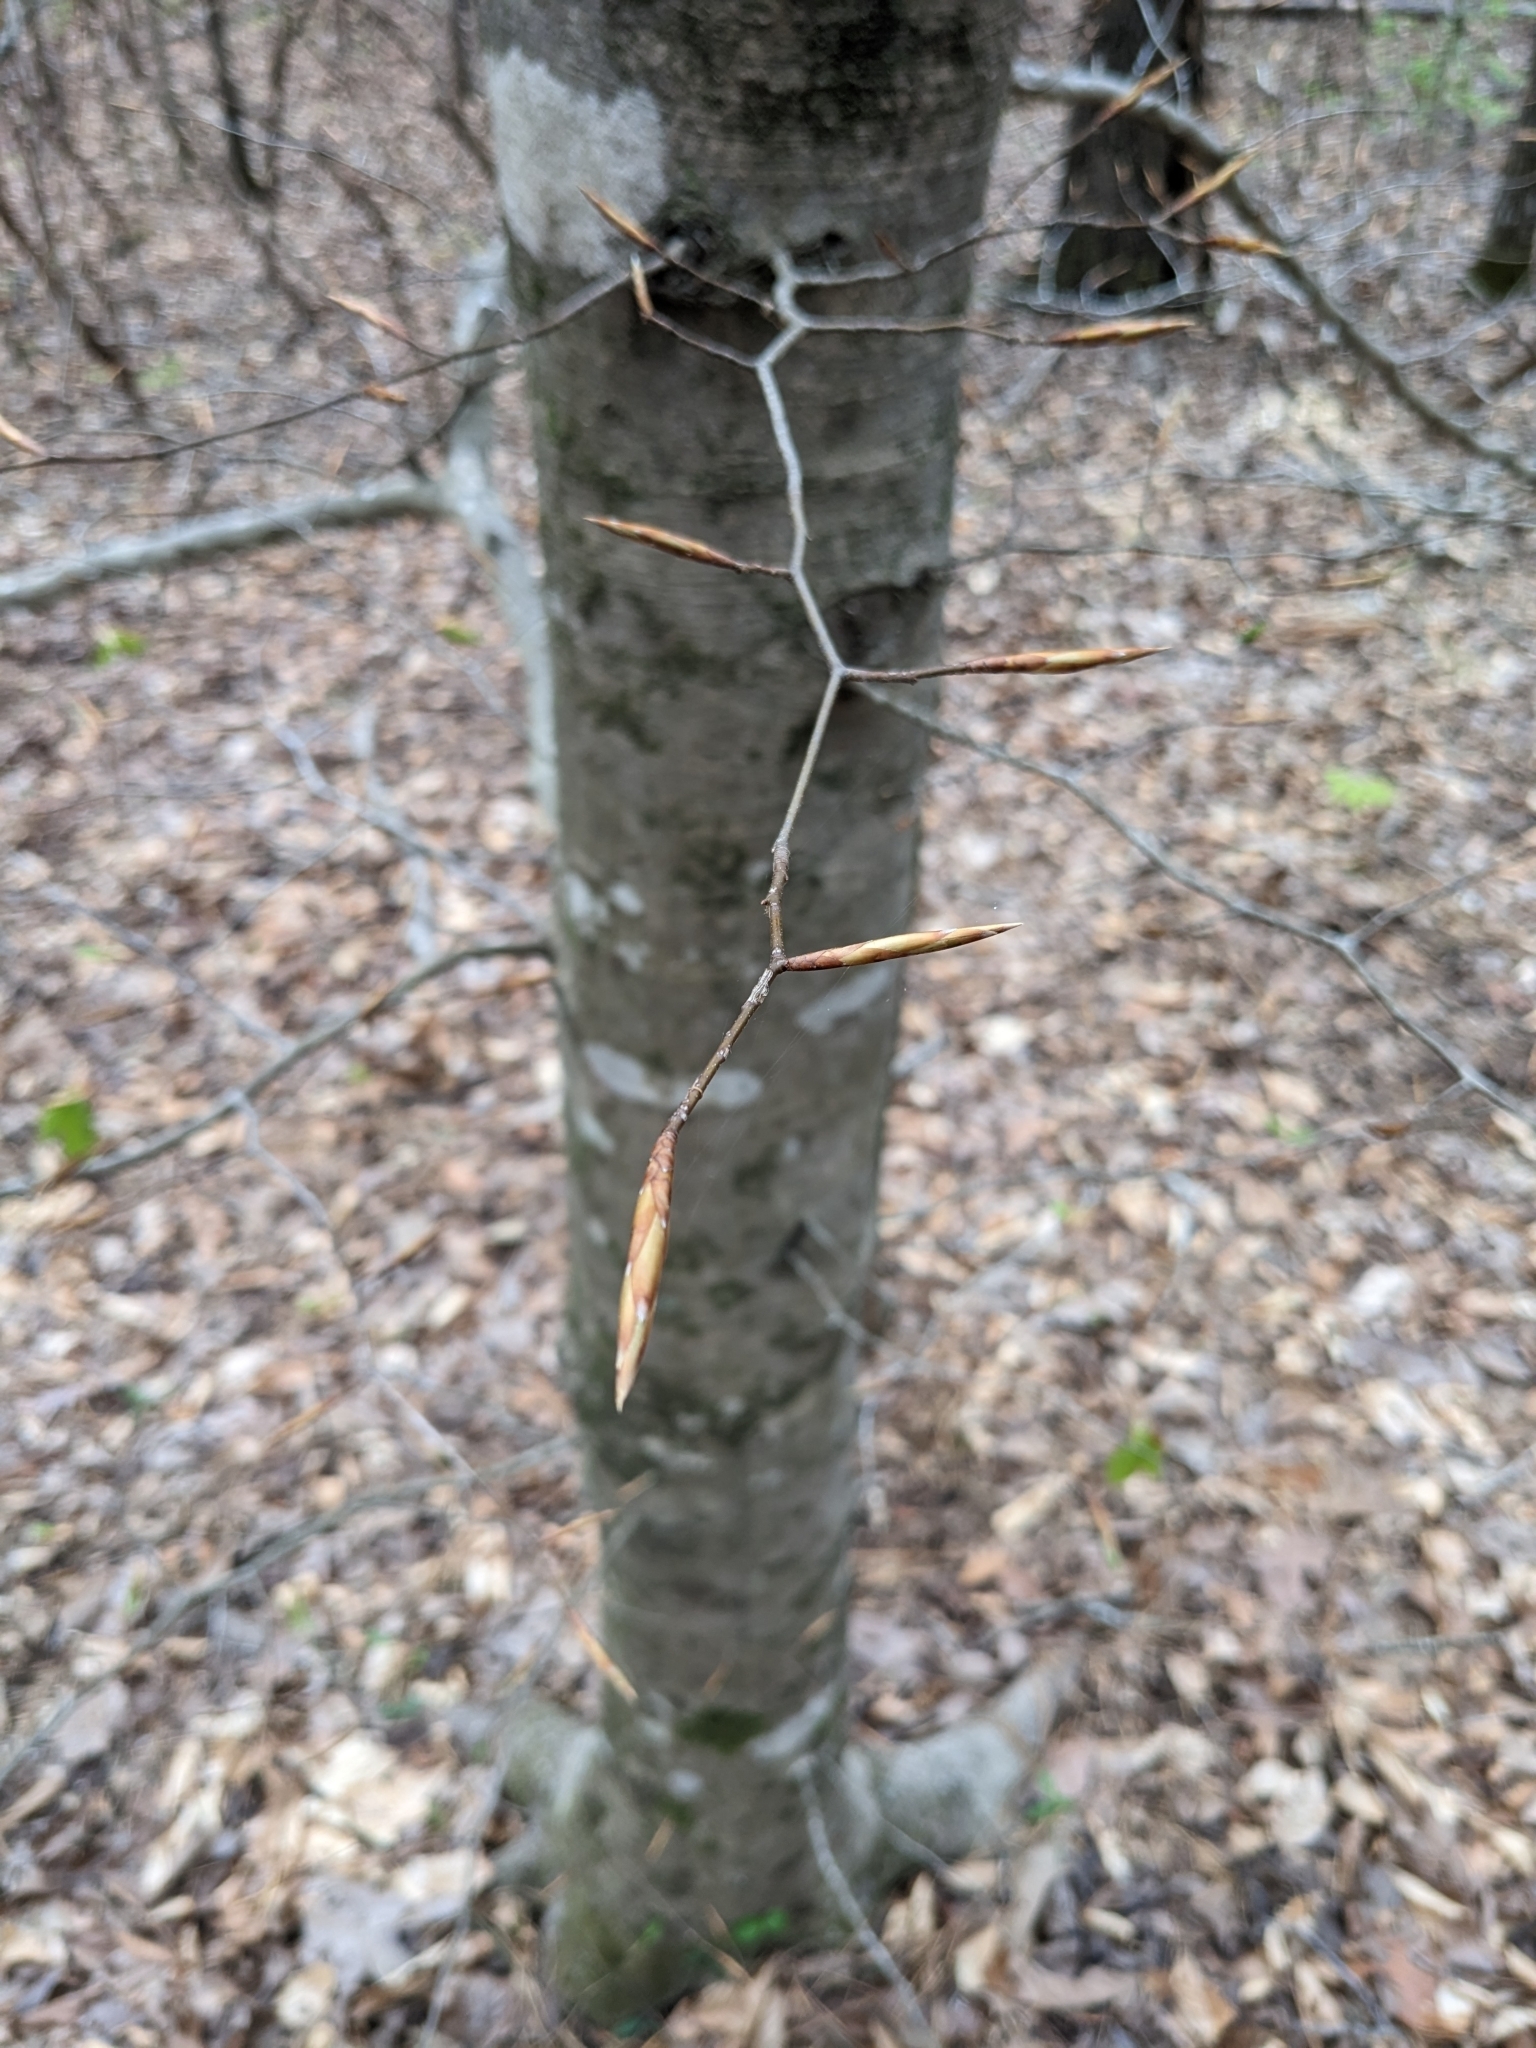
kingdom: Plantae
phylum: Tracheophyta
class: Magnoliopsida
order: Fagales
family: Fagaceae
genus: Fagus
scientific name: Fagus grandifolia
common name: American beech
